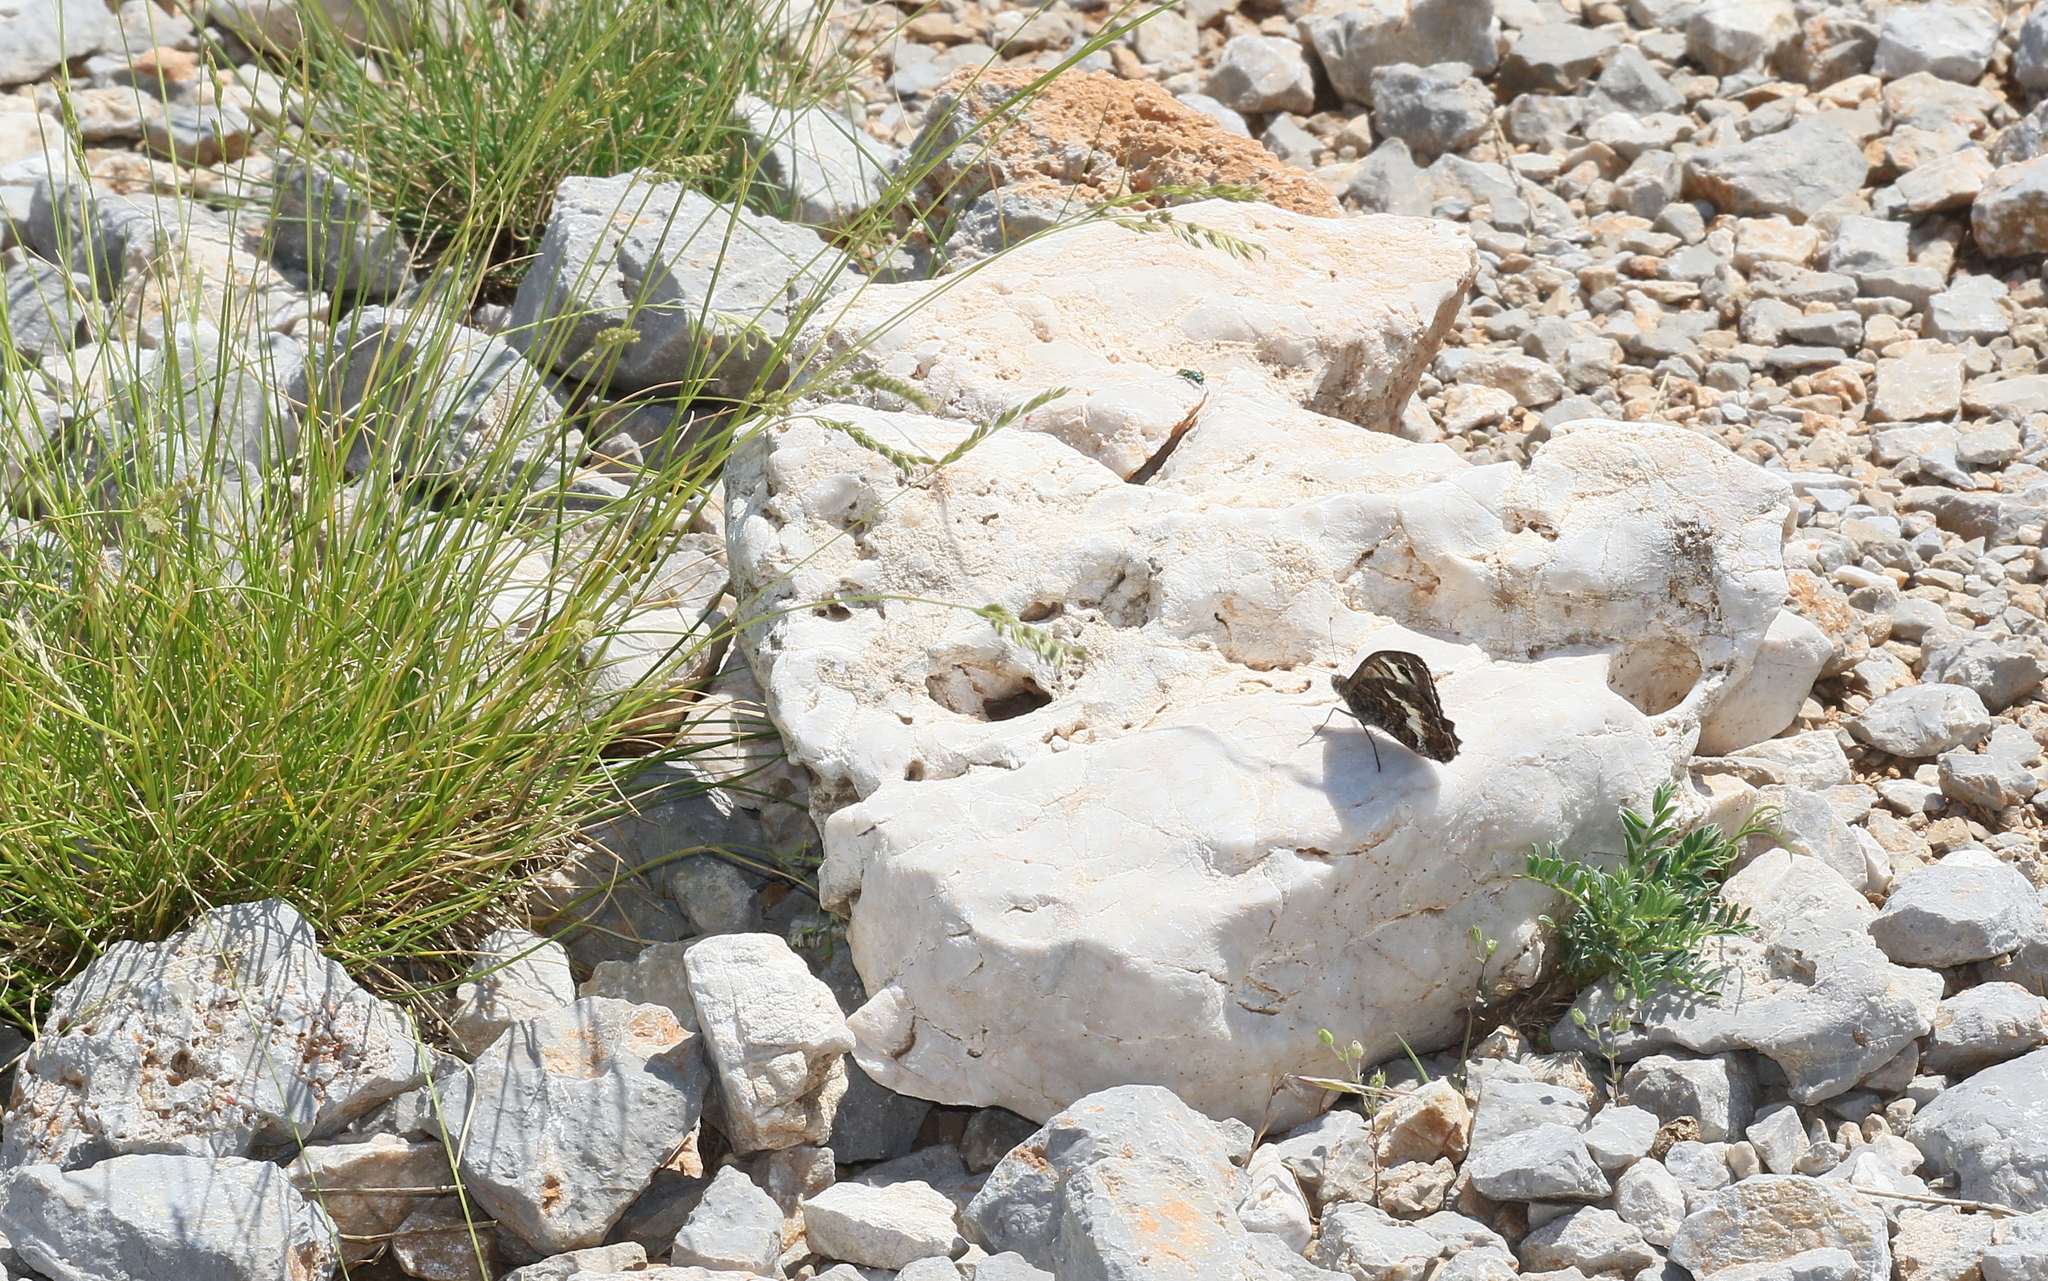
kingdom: Animalia
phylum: Arthropoda
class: Insecta
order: Lepidoptera
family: Nymphalidae
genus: Pseudochazara
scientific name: Pseudochazara anthelea
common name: White-banded grayling
